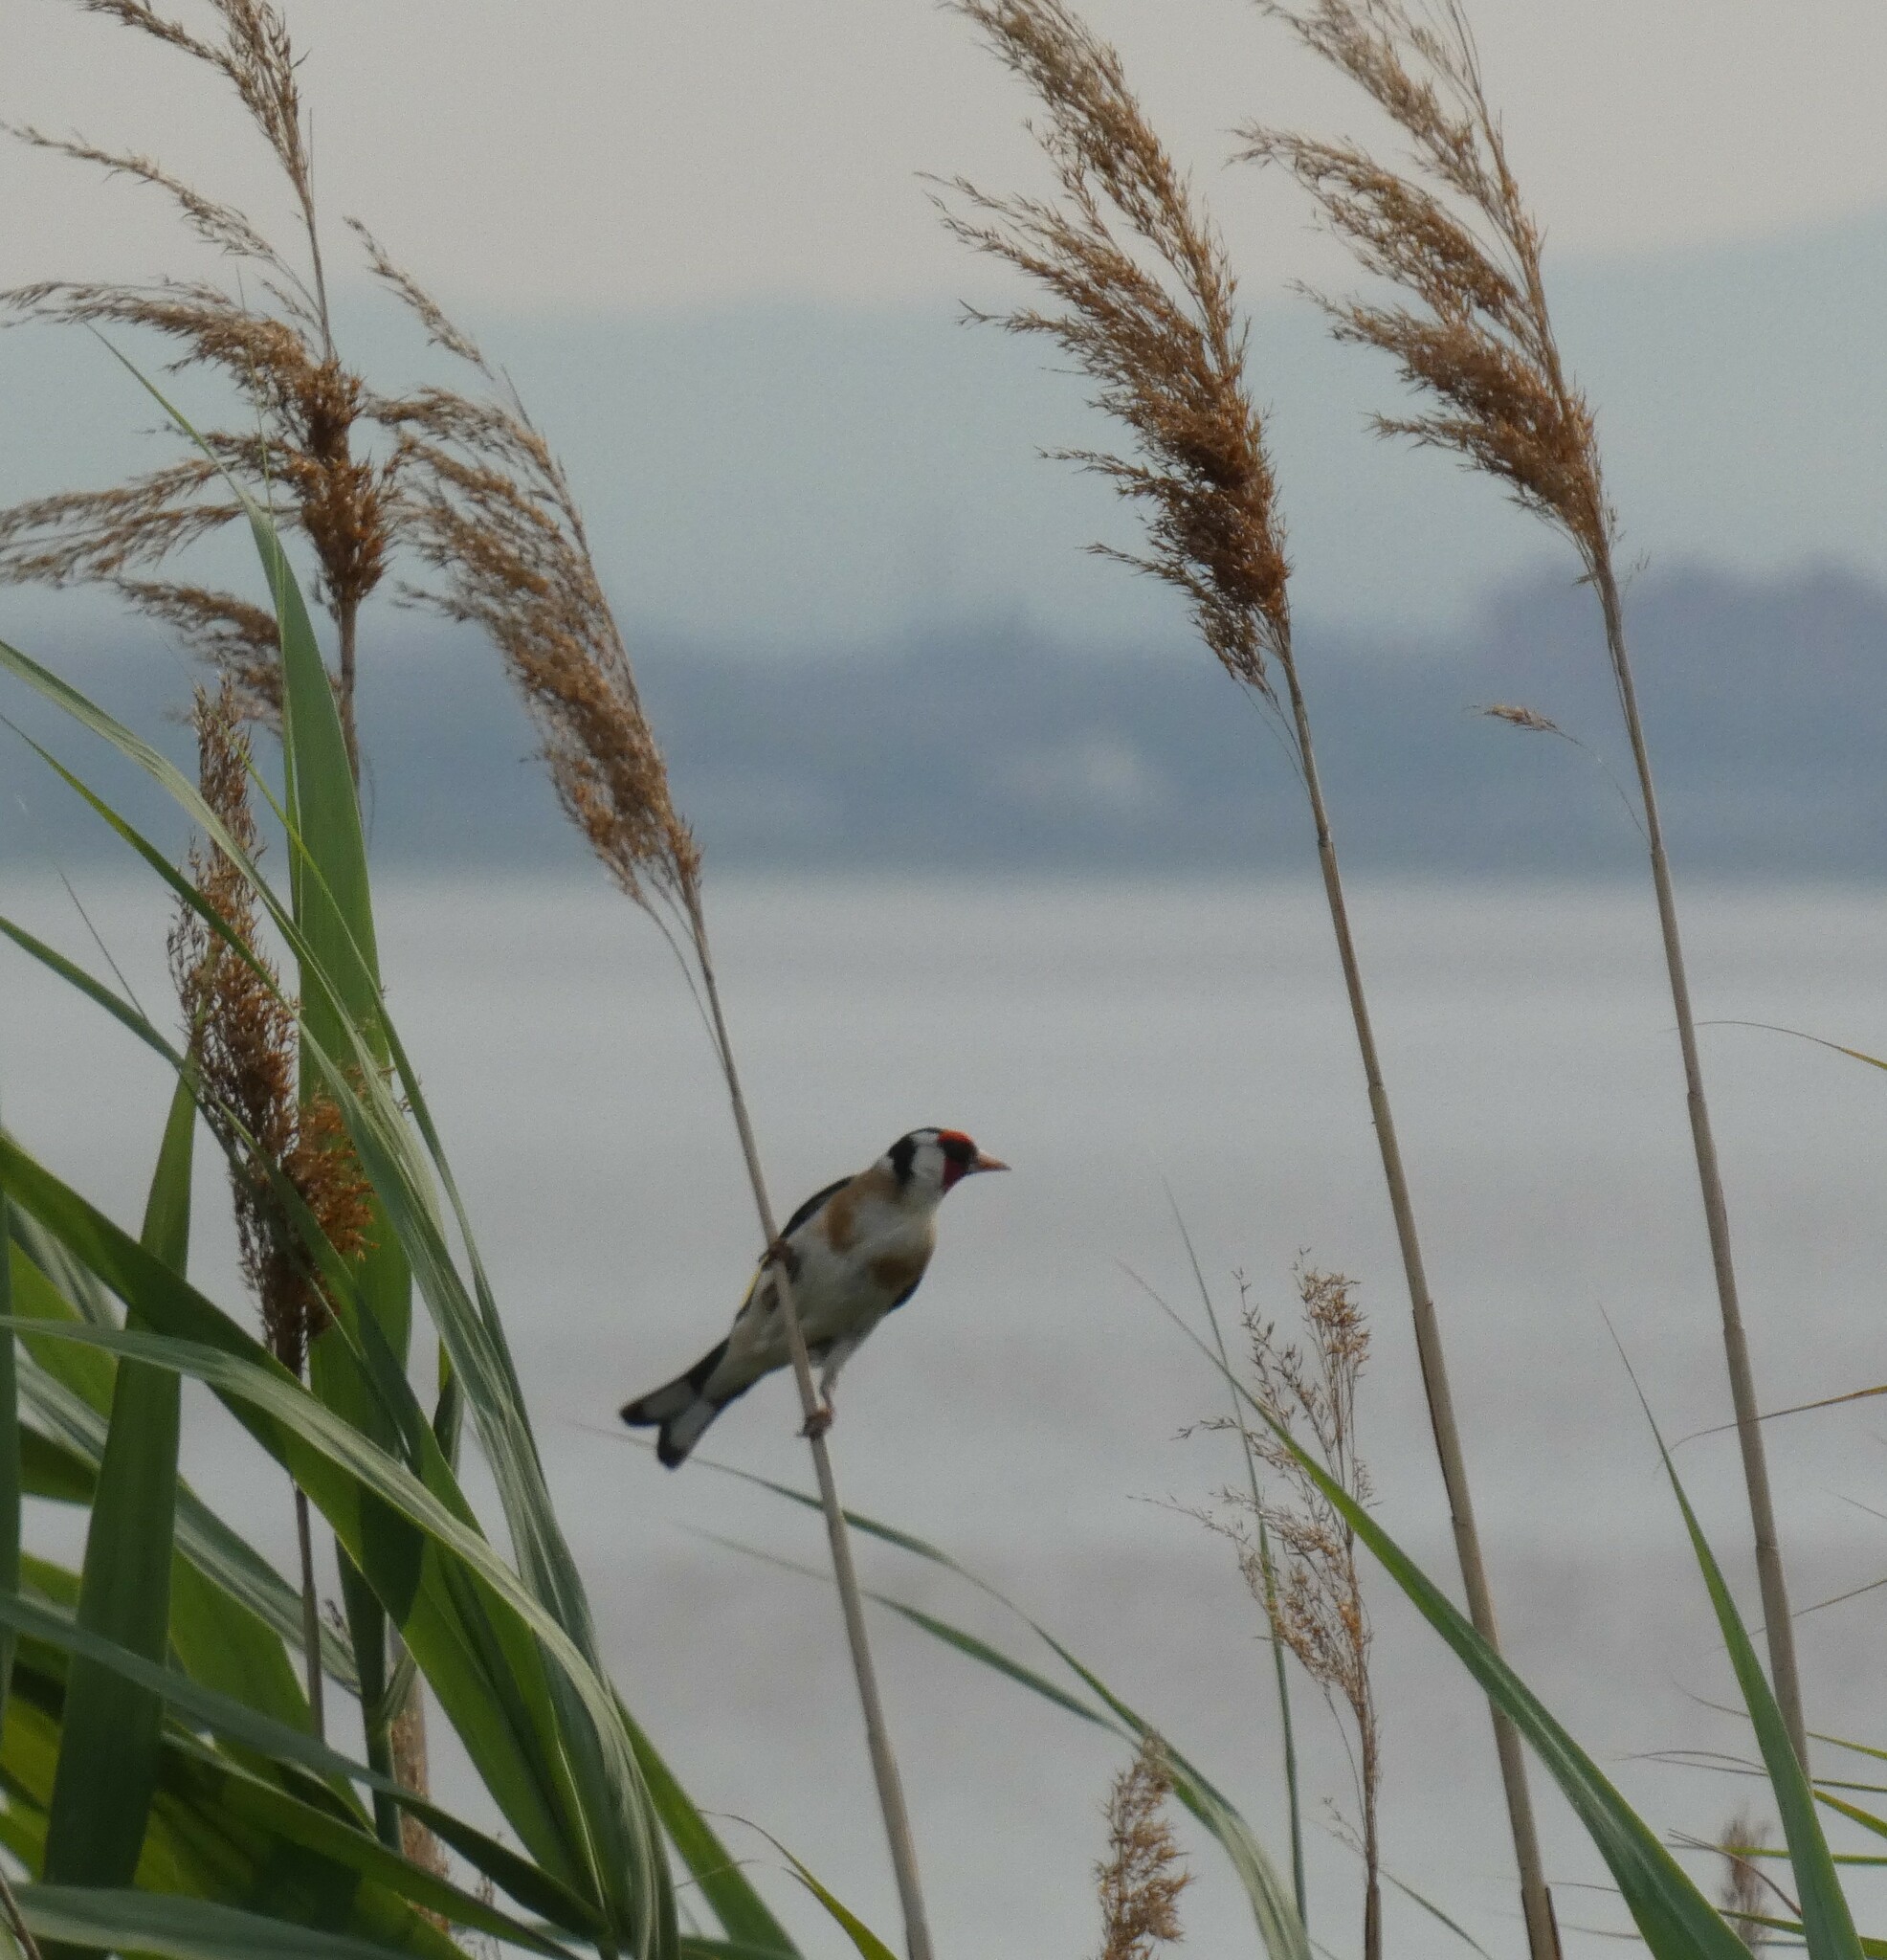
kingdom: Animalia
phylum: Chordata
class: Aves
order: Passeriformes
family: Fringillidae
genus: Carduelis
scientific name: Carduelis carduelis
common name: European goldfinch
